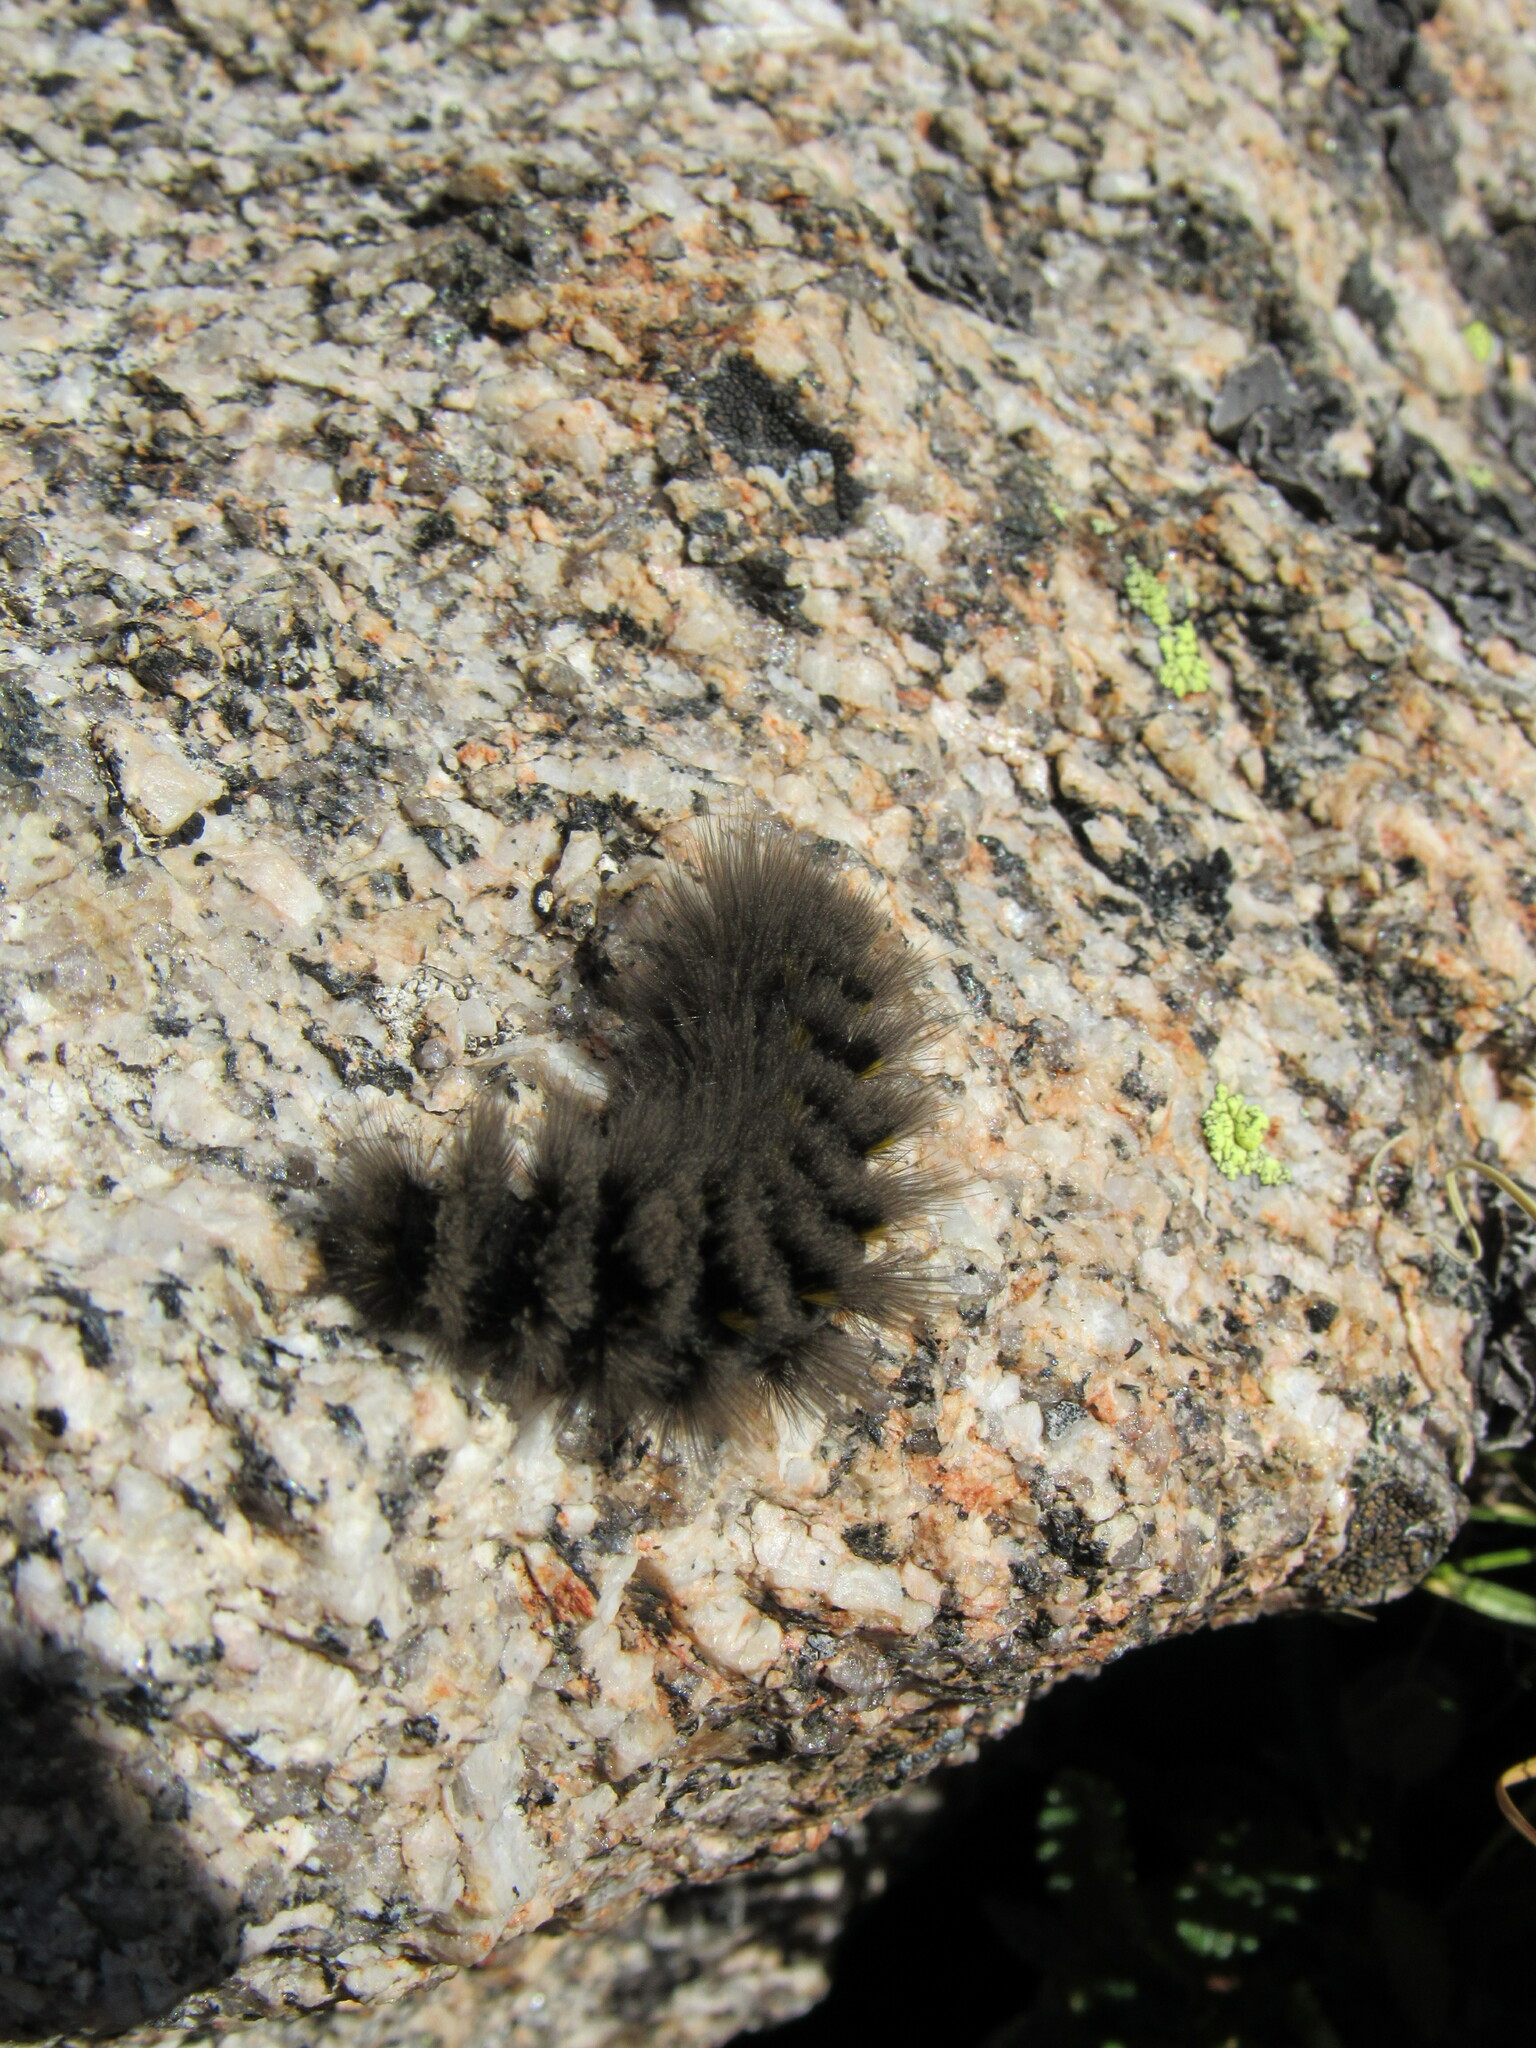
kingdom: Animalia
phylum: Arthropoda
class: Insecta
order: Lepidoptera
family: Erebidae
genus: Gynaephora
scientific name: Gynaephora rossii
